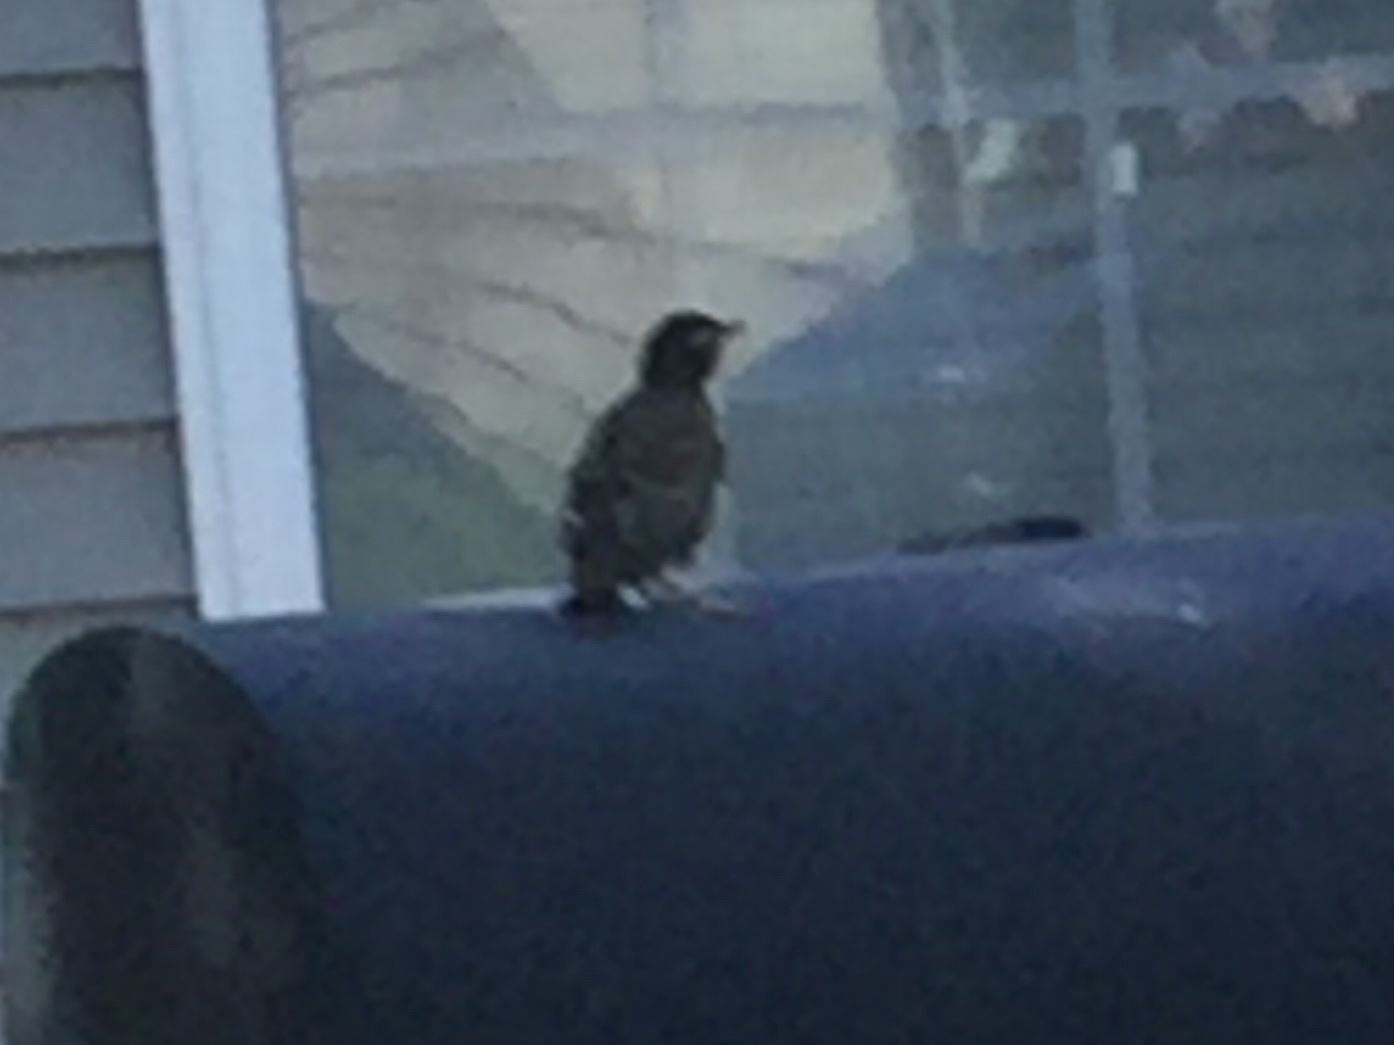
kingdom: Animalia
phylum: Chordata
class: Aves
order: Passeriformes
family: Turdidae
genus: Turdus
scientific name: Turdus migratorius
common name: American robin
